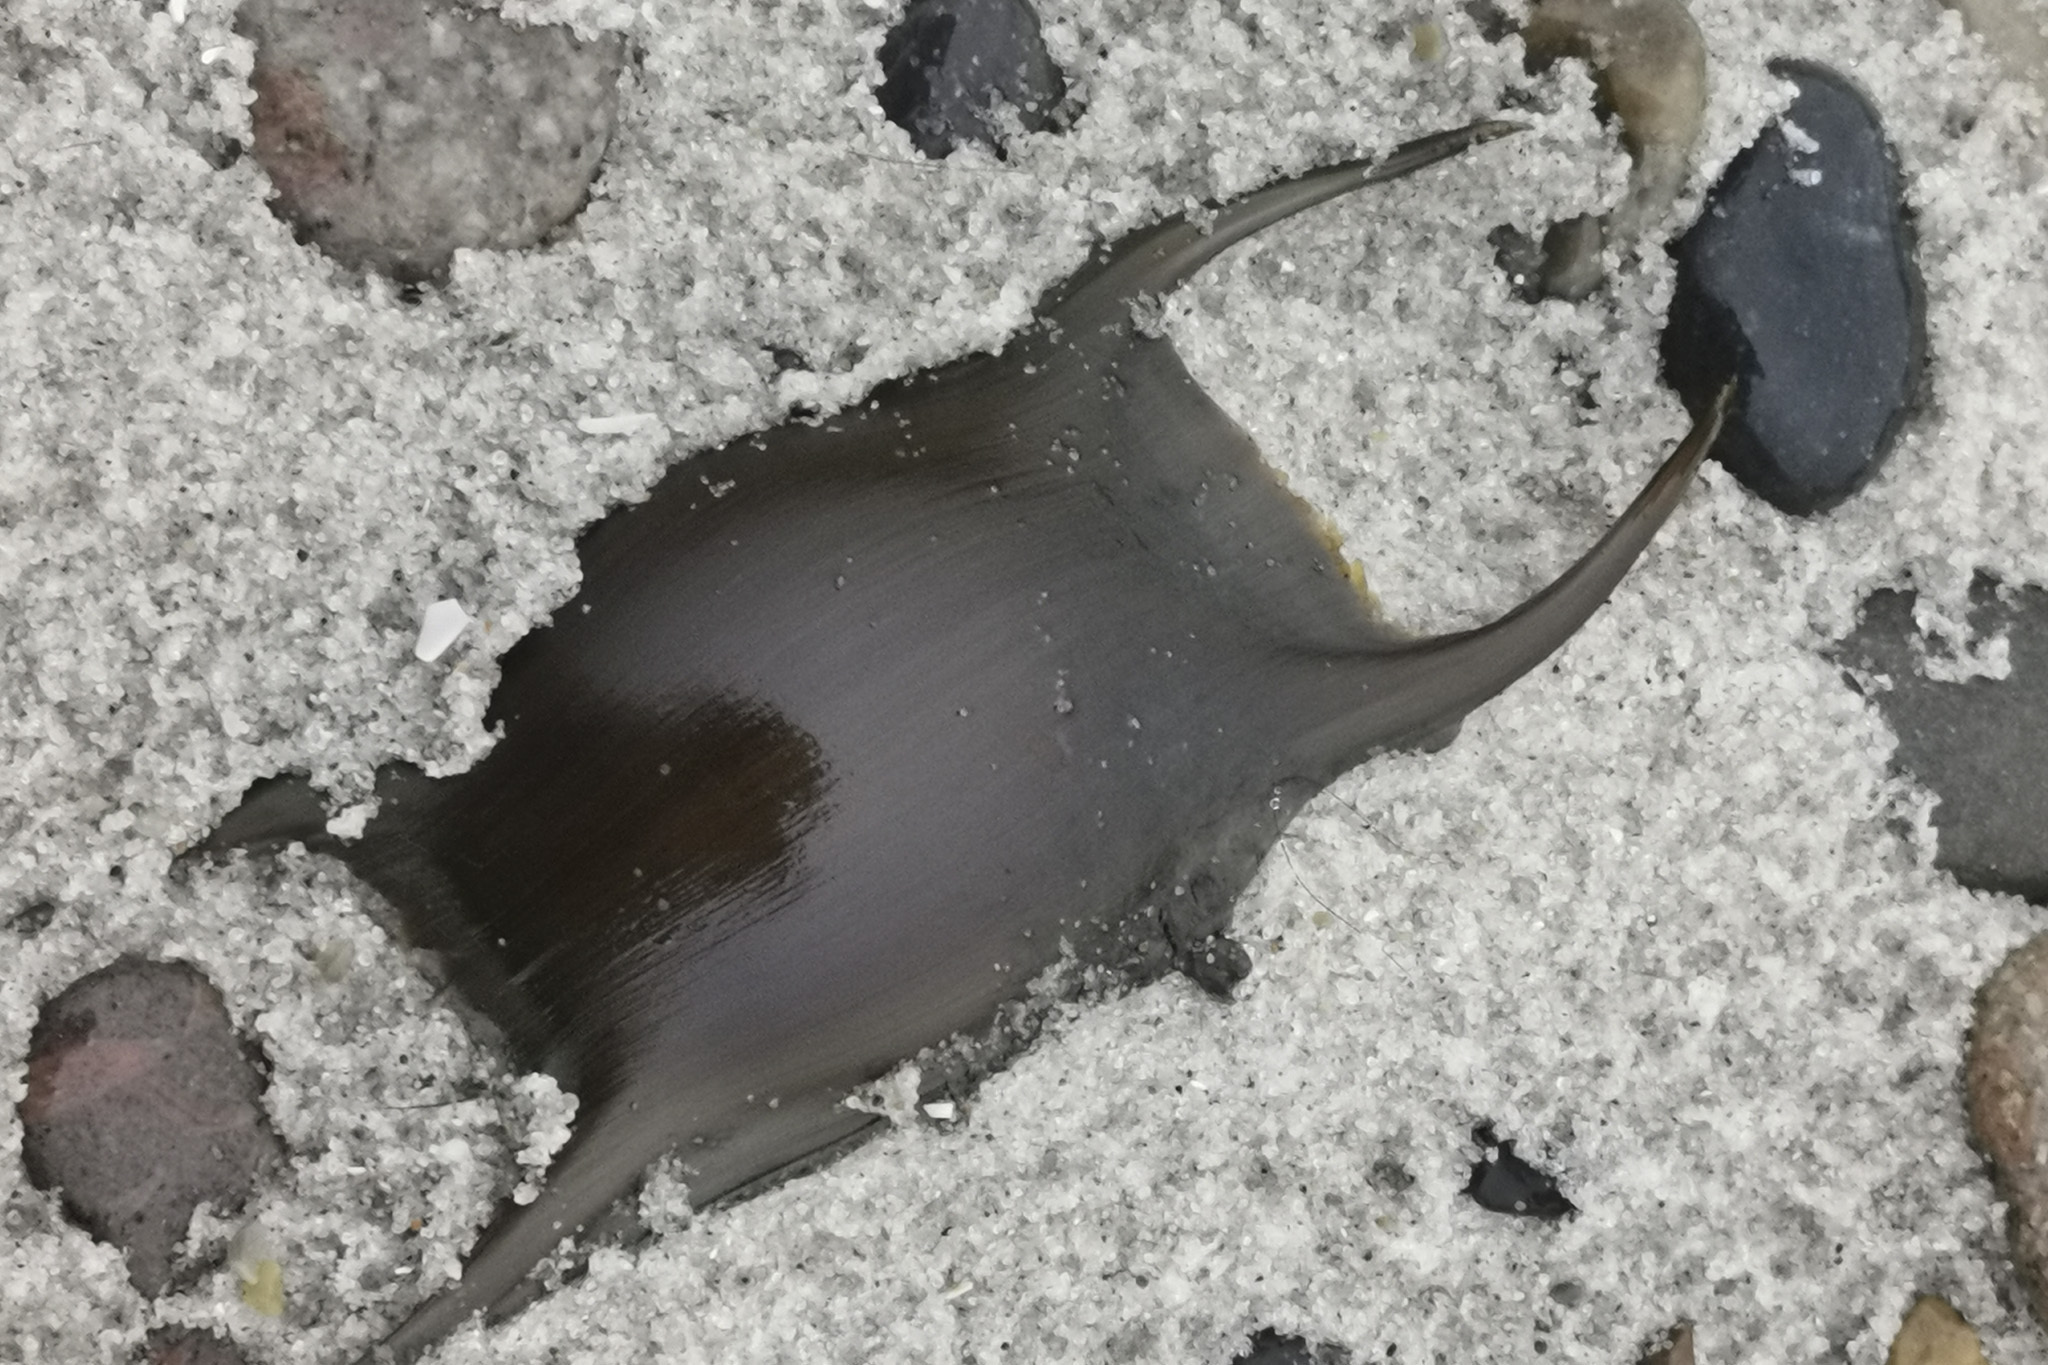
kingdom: Animalia
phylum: Chordata
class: Elasmobranchii
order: Rajiformes
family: Rajidae
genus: Raja
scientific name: Raja clavata
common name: Thornback ray
